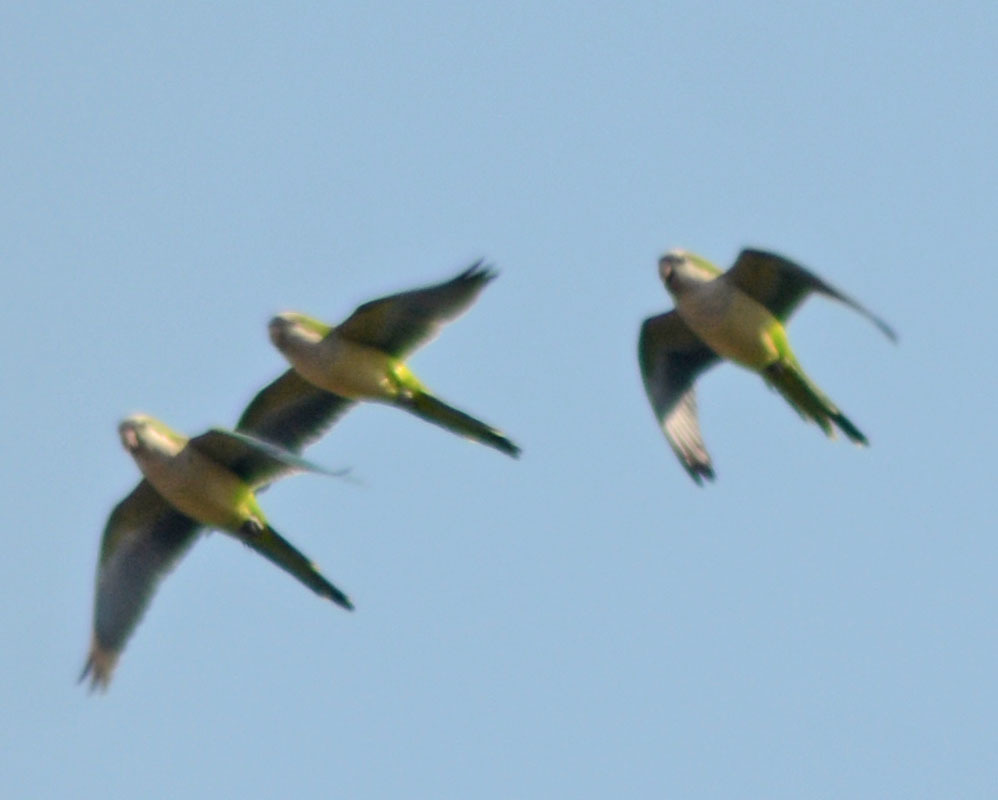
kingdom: Animalia
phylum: Chordata
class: Aves
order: Psittaciformes
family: Psittacidae
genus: Myiopsitta
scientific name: Myiopsitta monachus
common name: Monk parakeet
